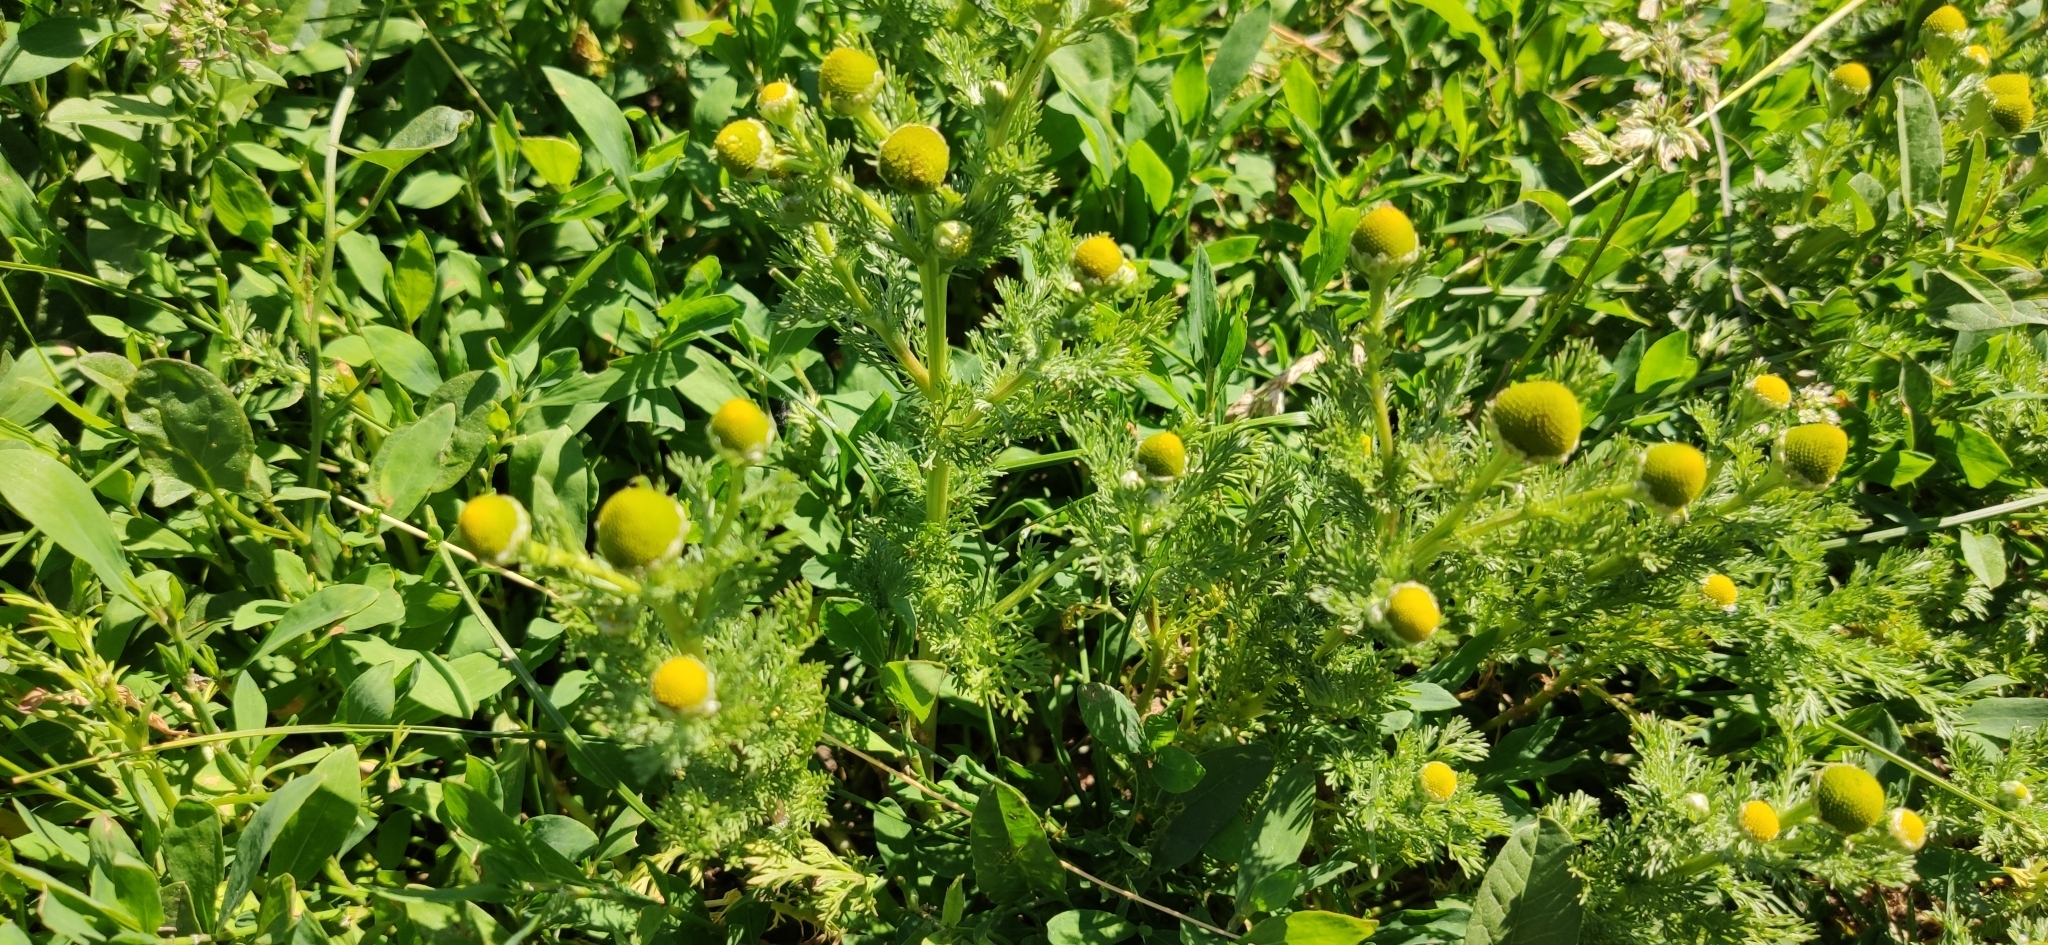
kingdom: Plantae
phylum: Tracheophyta
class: Magnoliopsida
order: Asterales
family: Asteraceae
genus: Matricaria
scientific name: Matricaria discoidea
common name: Disc mayweed
